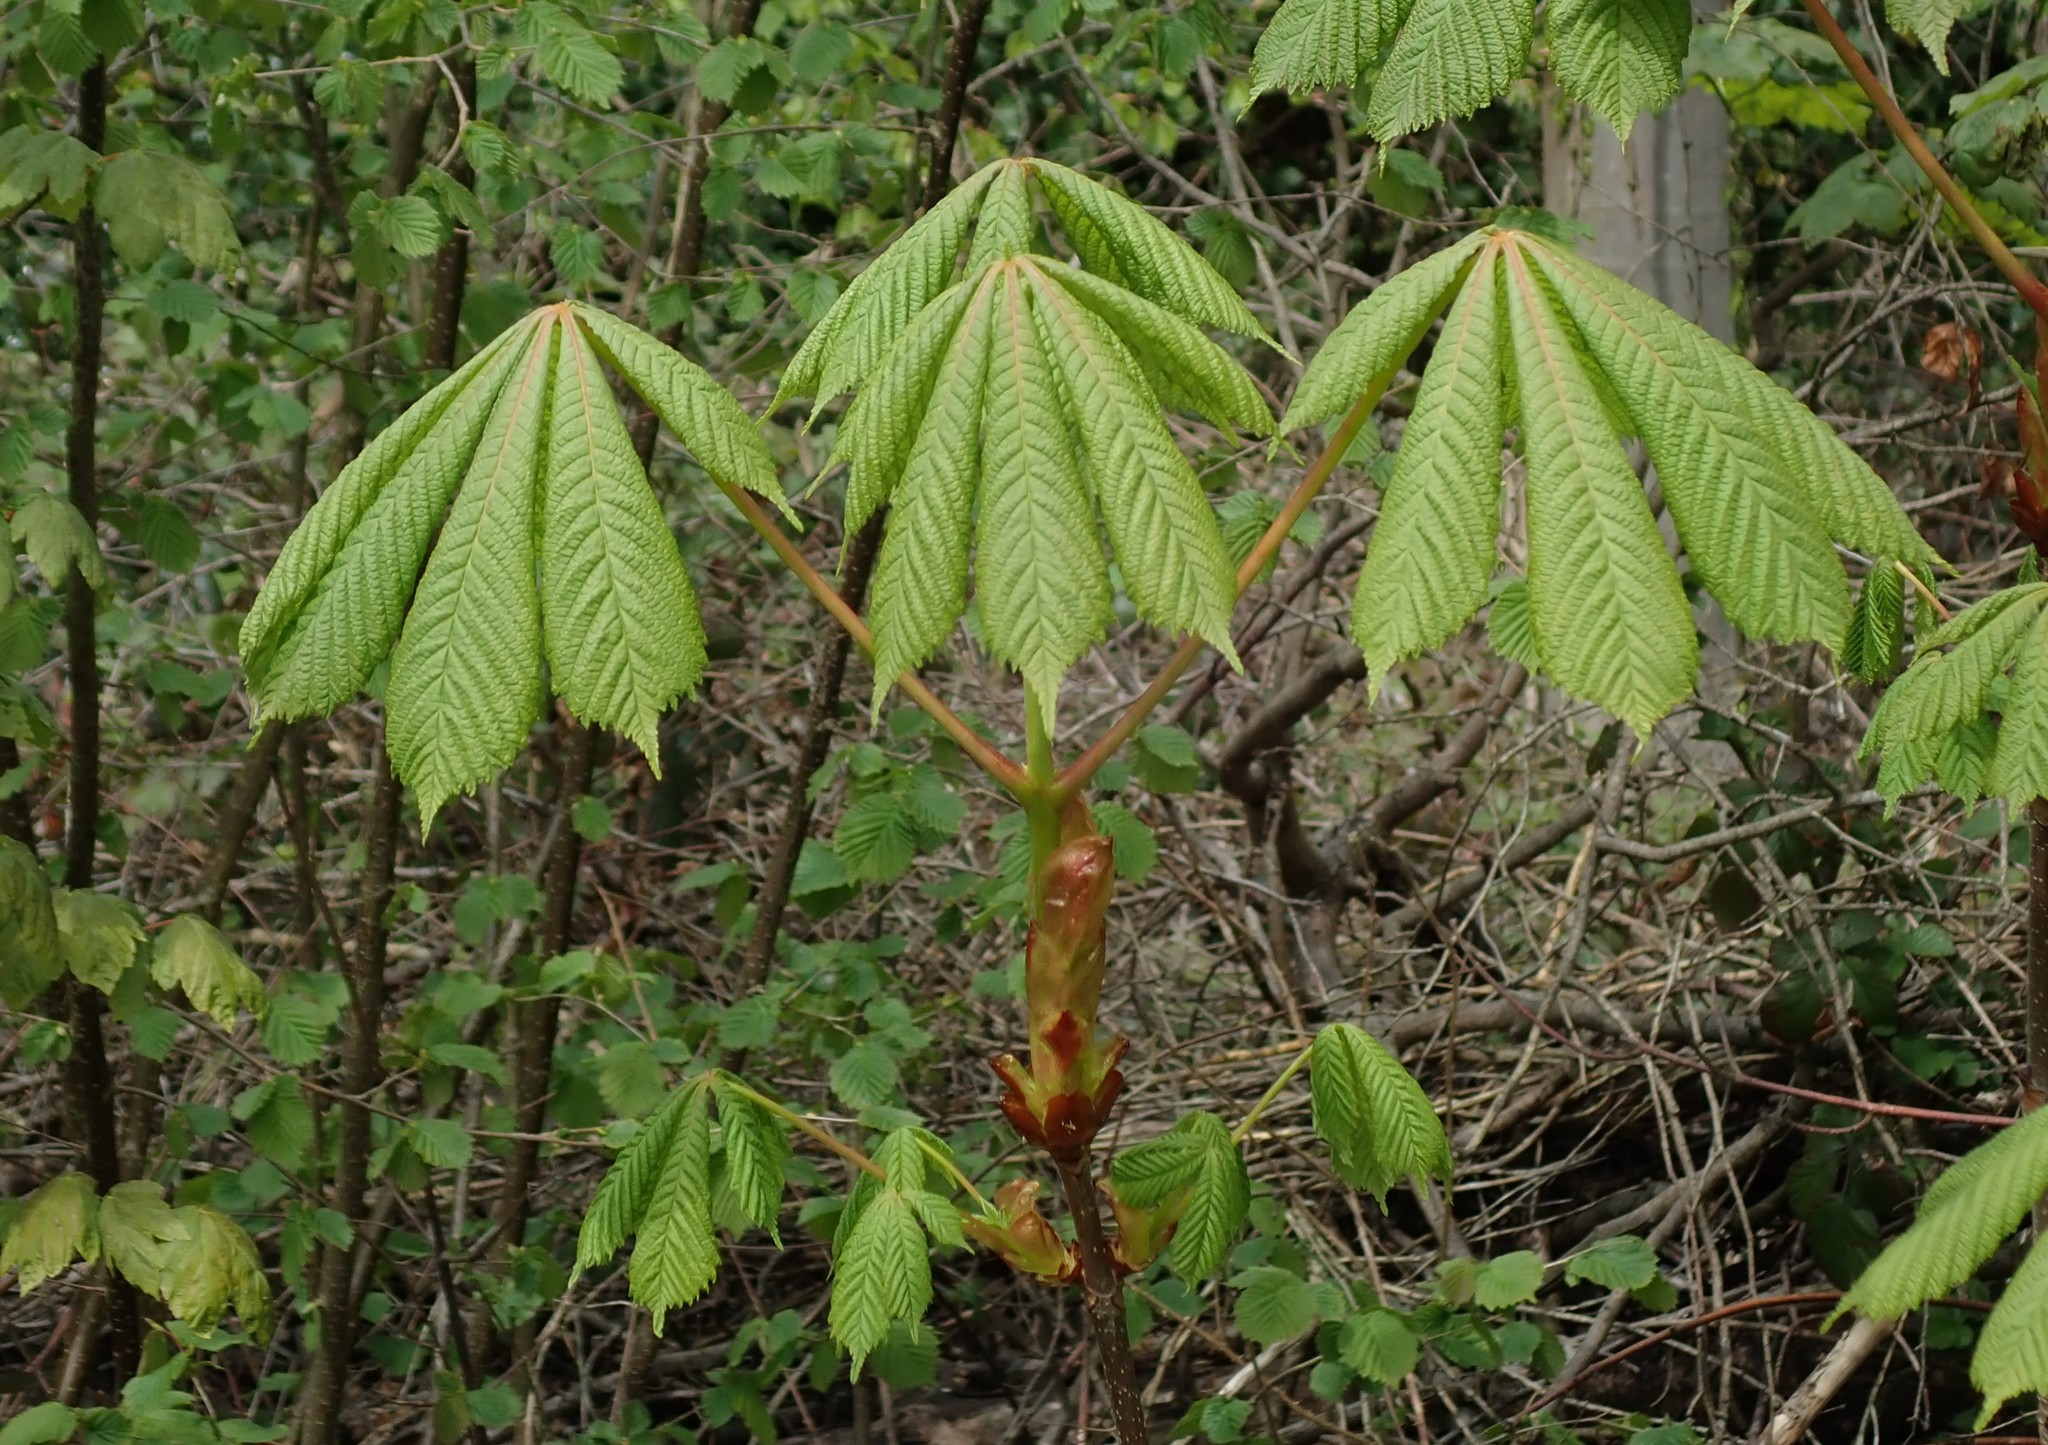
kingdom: Plantae
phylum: Tracheophyta
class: Magnoliopsida
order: Sapindales
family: Sapindaceae
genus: Aesculus
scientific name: Aesculus hippocastanum
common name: Horse-chestnut
